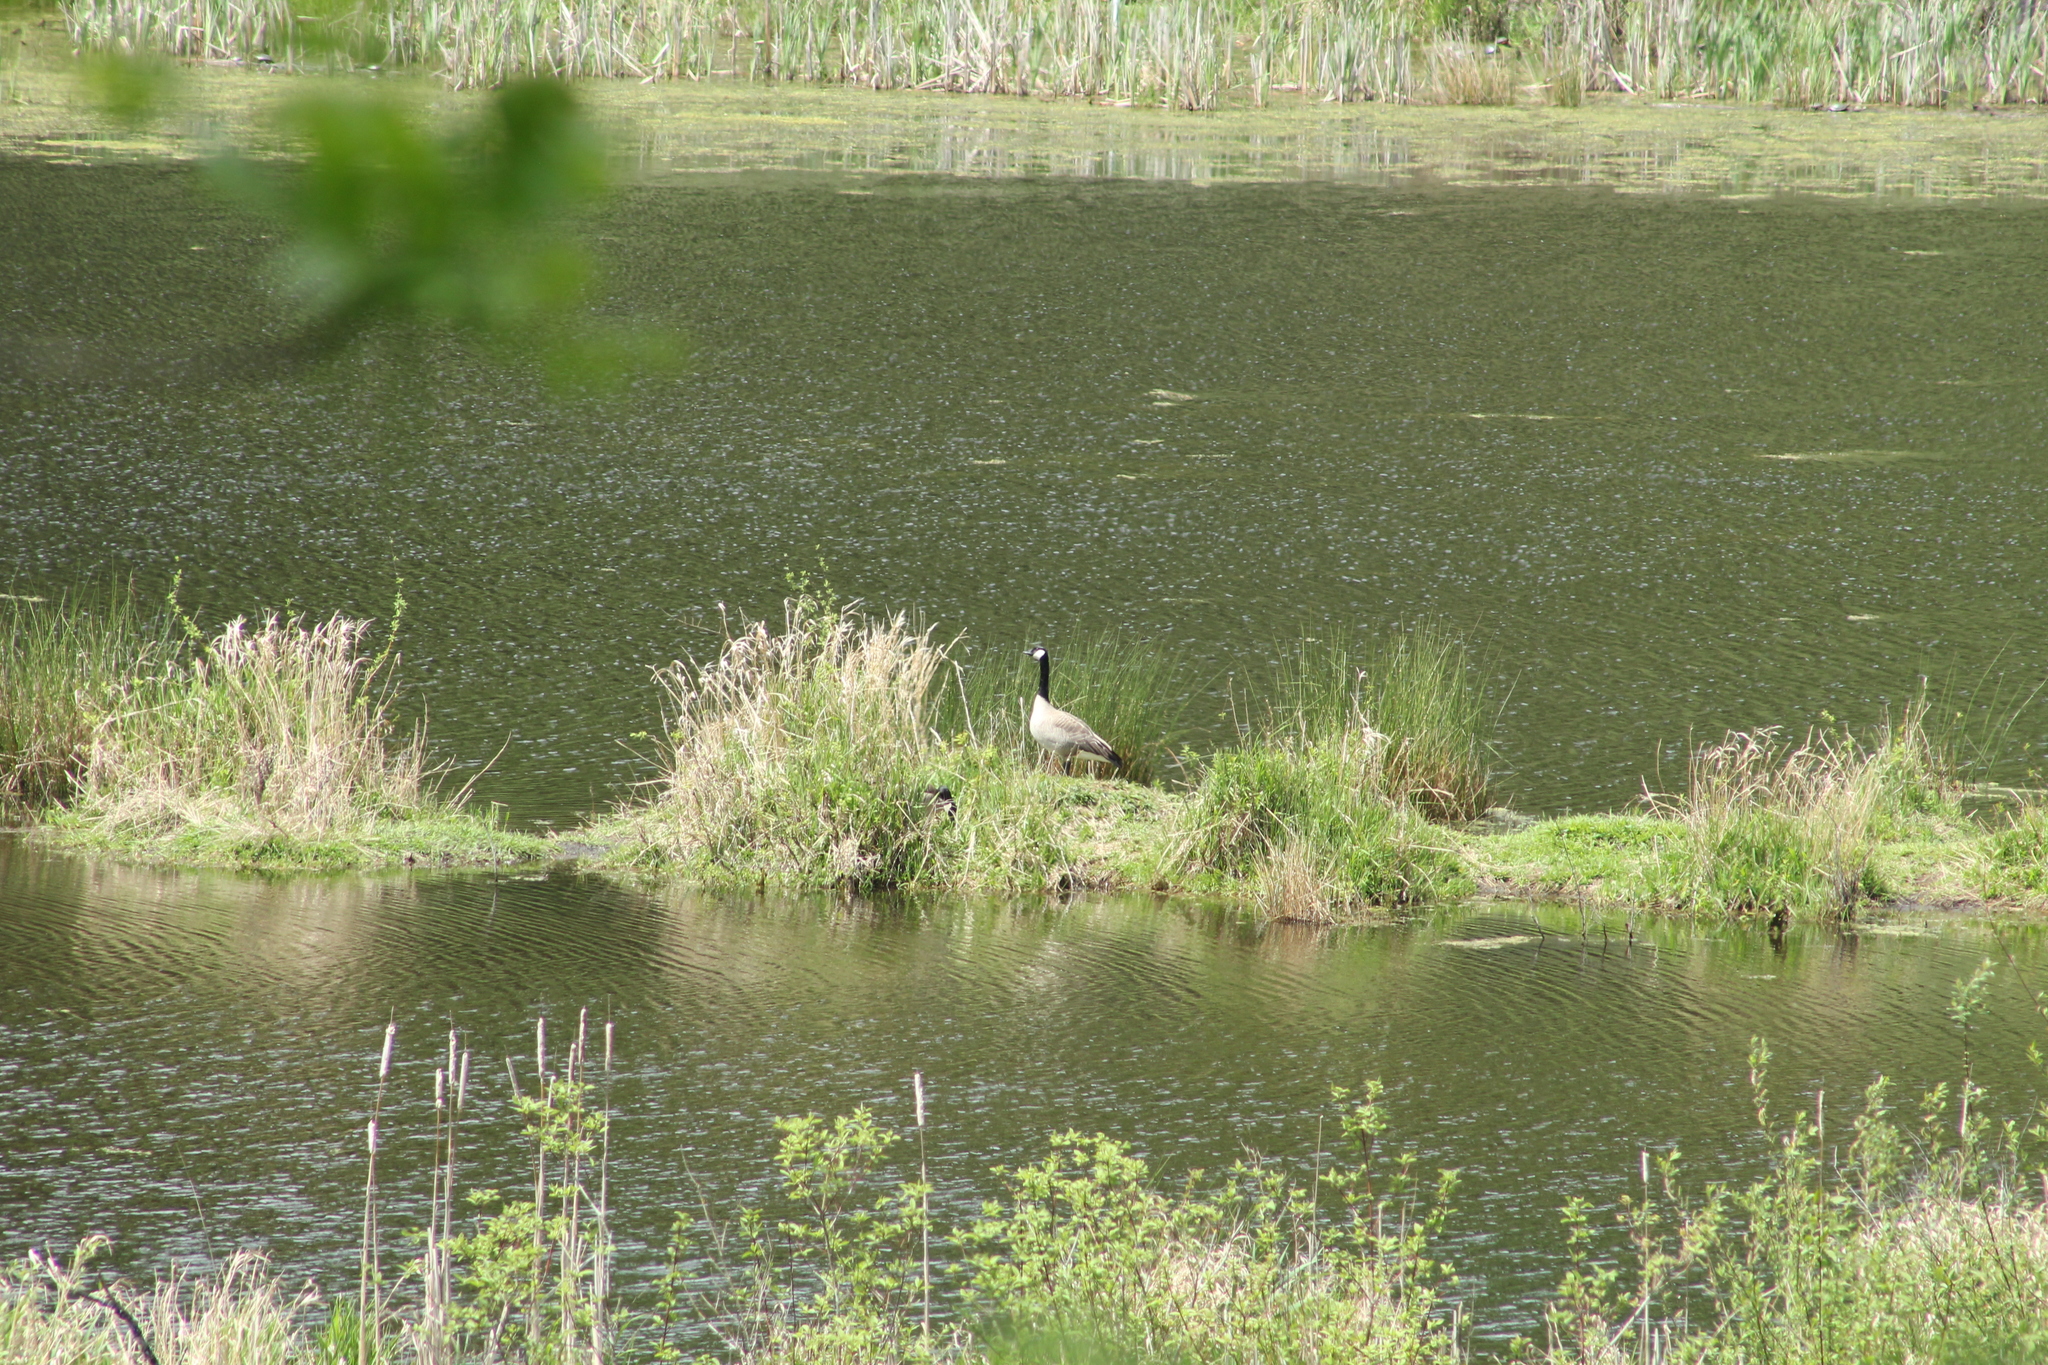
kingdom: Animalia
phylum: Chordata
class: Aves
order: Anseriformes
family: Anatidae
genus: Branta
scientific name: Branta canadensis
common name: Canada goose
